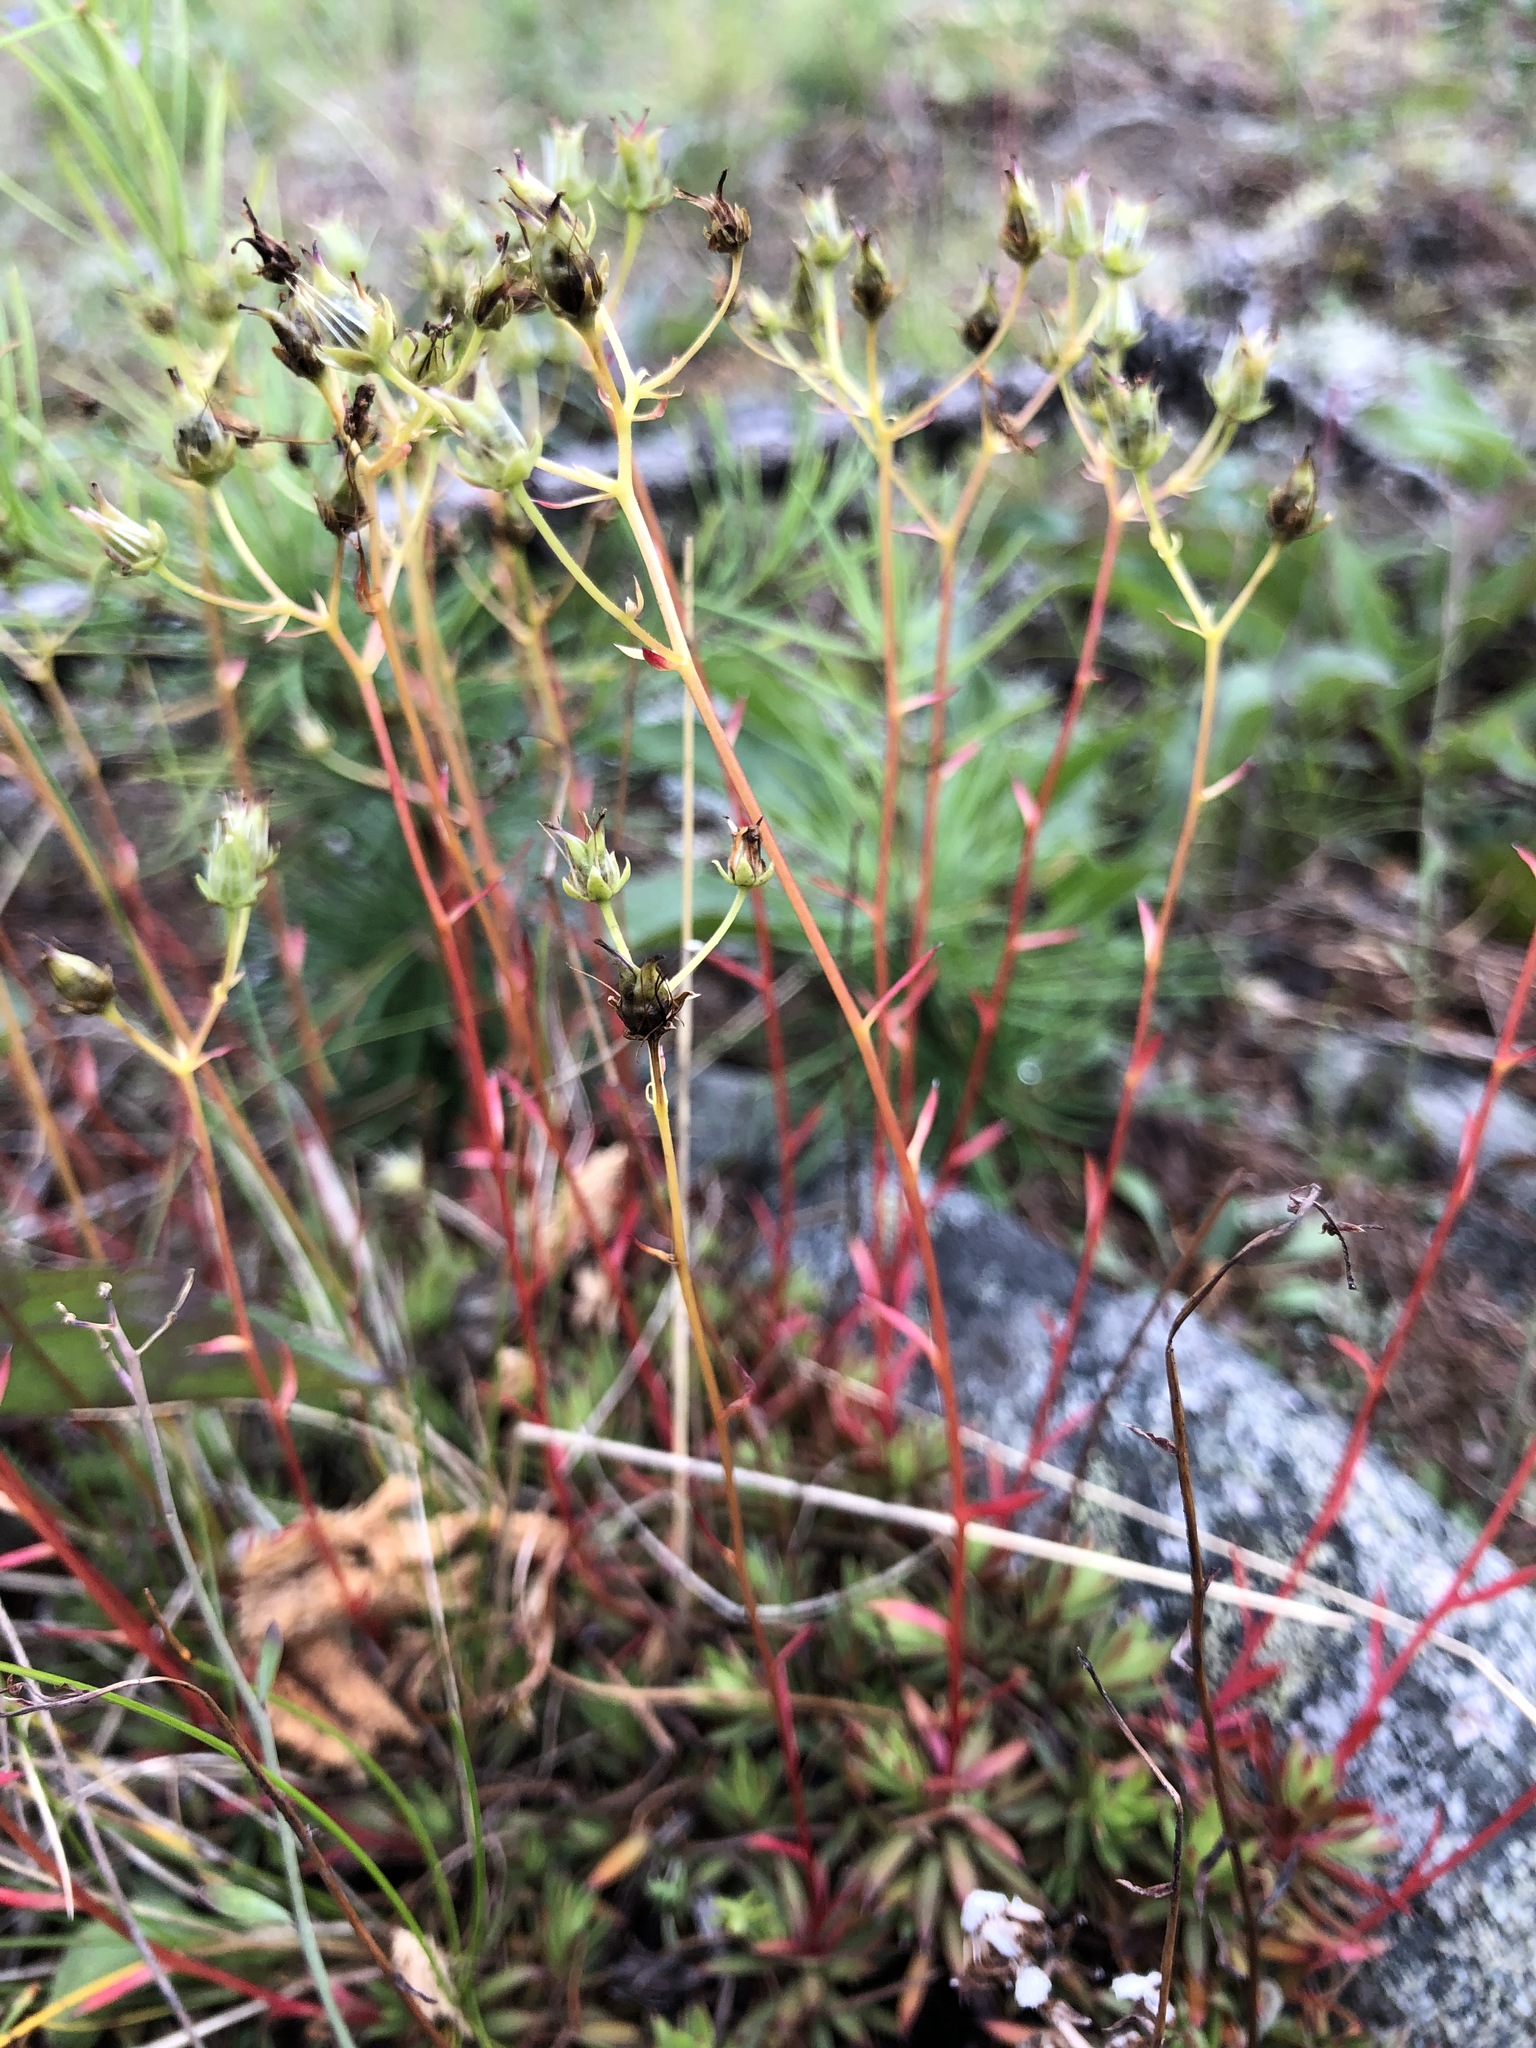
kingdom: Plantae
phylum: Tracheophyta
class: Magnoliopsida
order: Saxifragales
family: Saxifragaceae
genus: Saxifraga
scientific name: Saxifraga
